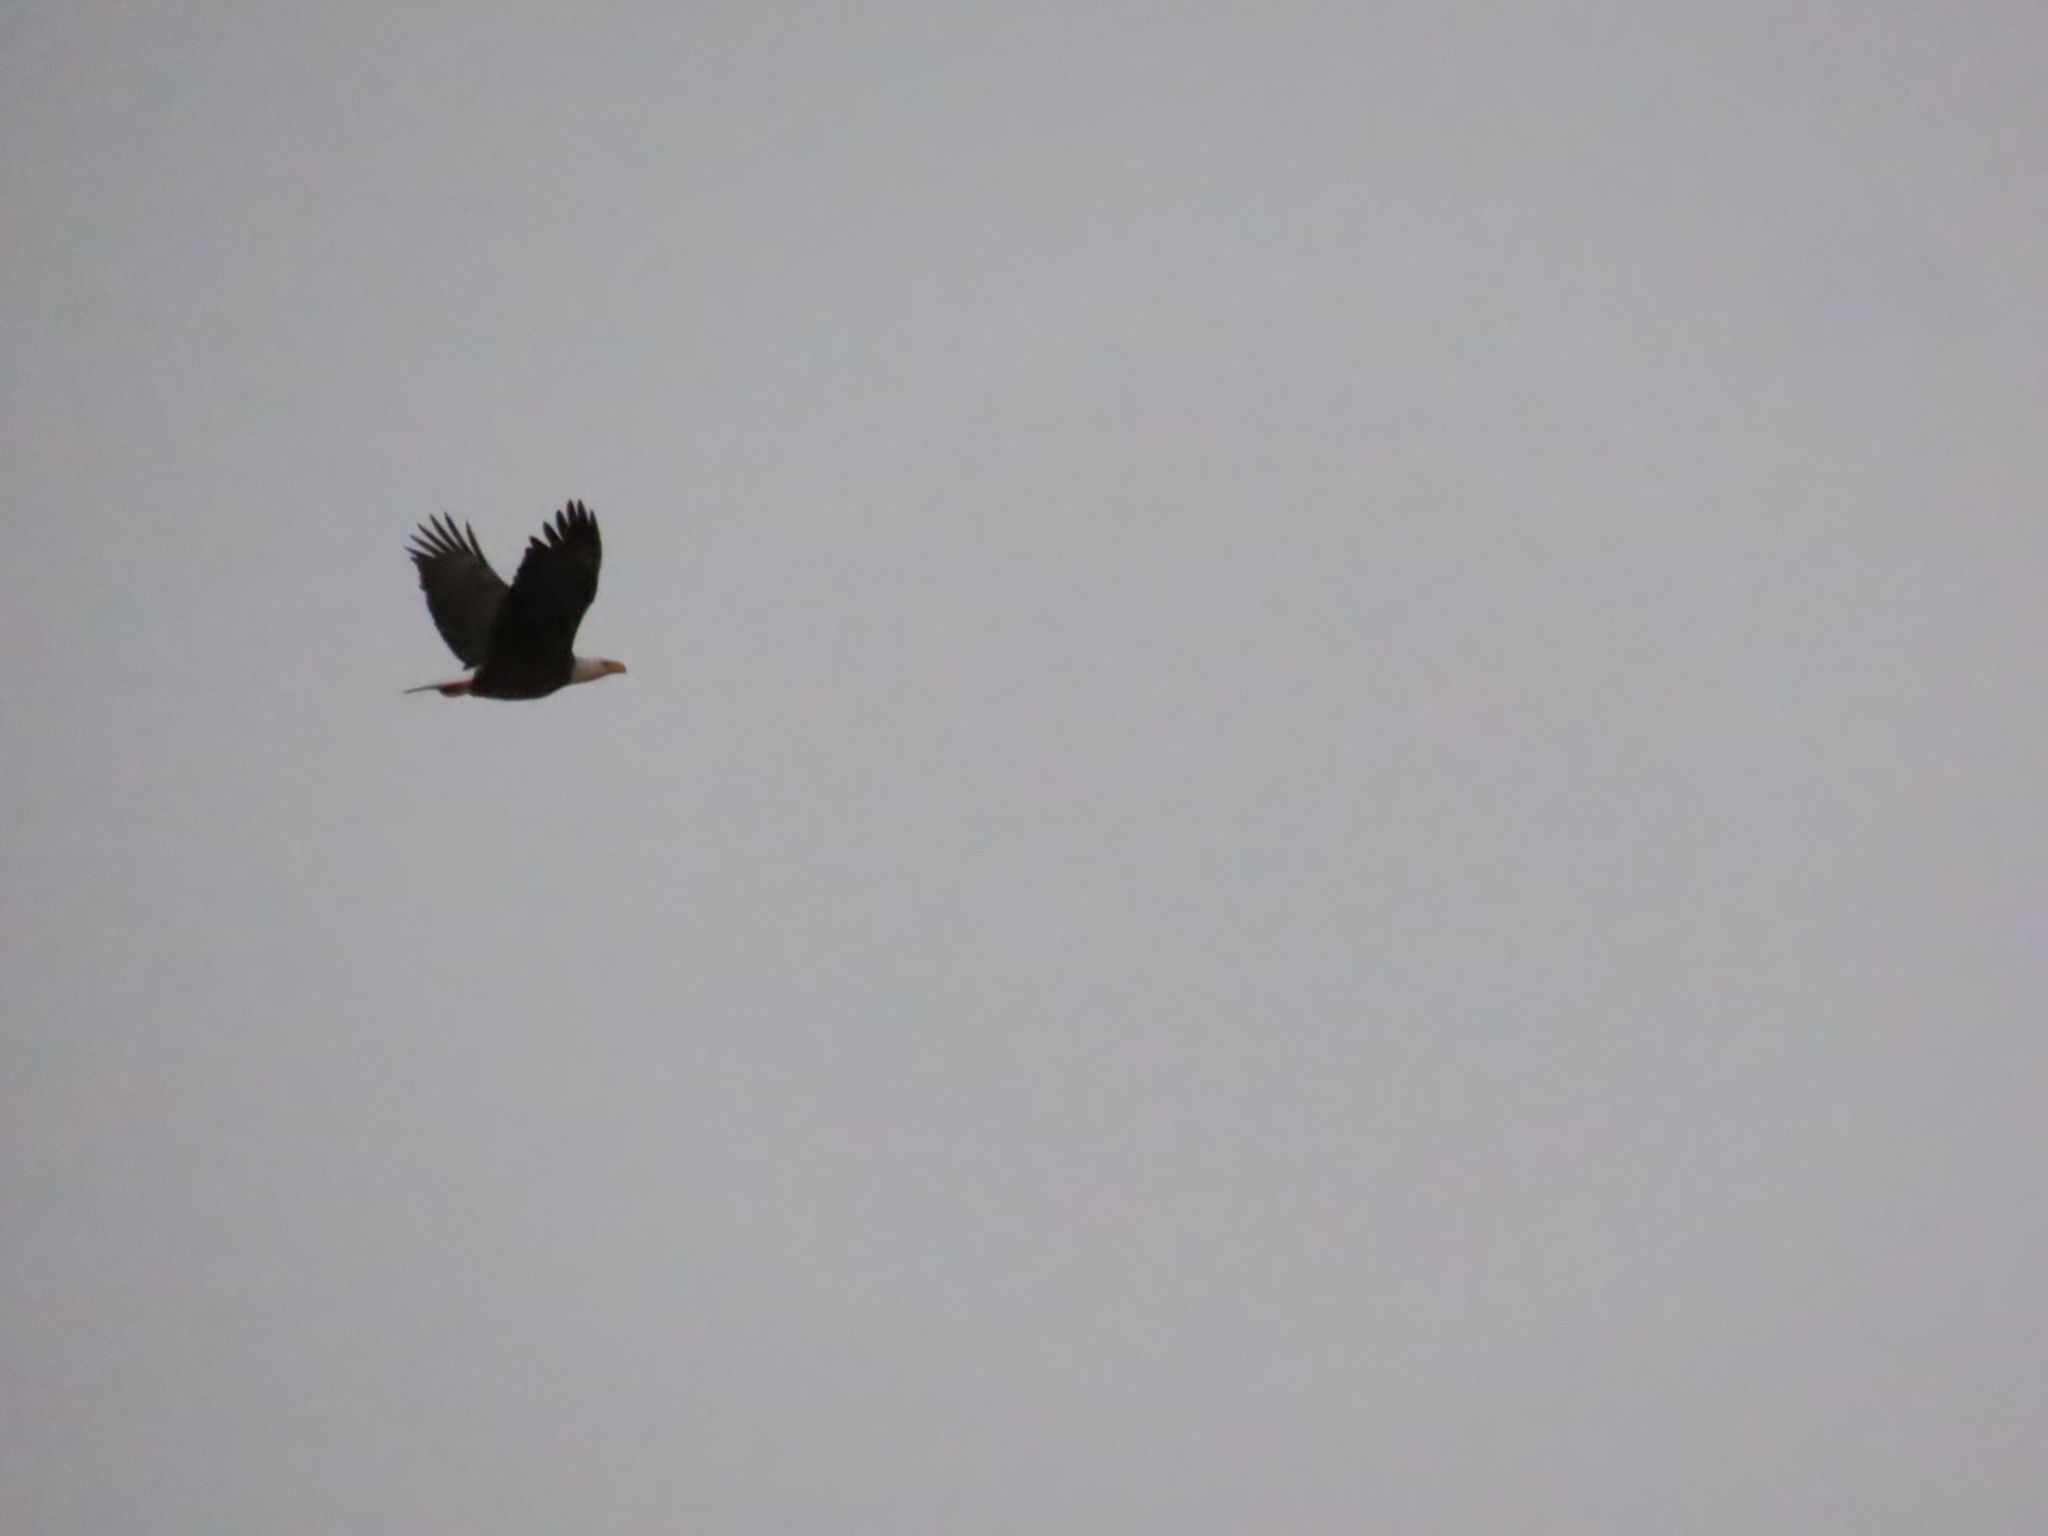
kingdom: Animalia
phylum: Chordata
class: Aves
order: Accipitriformes
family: Accipitridae
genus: Haliaeetus
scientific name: Haliaeetus leucocephalus
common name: Bald eagle
